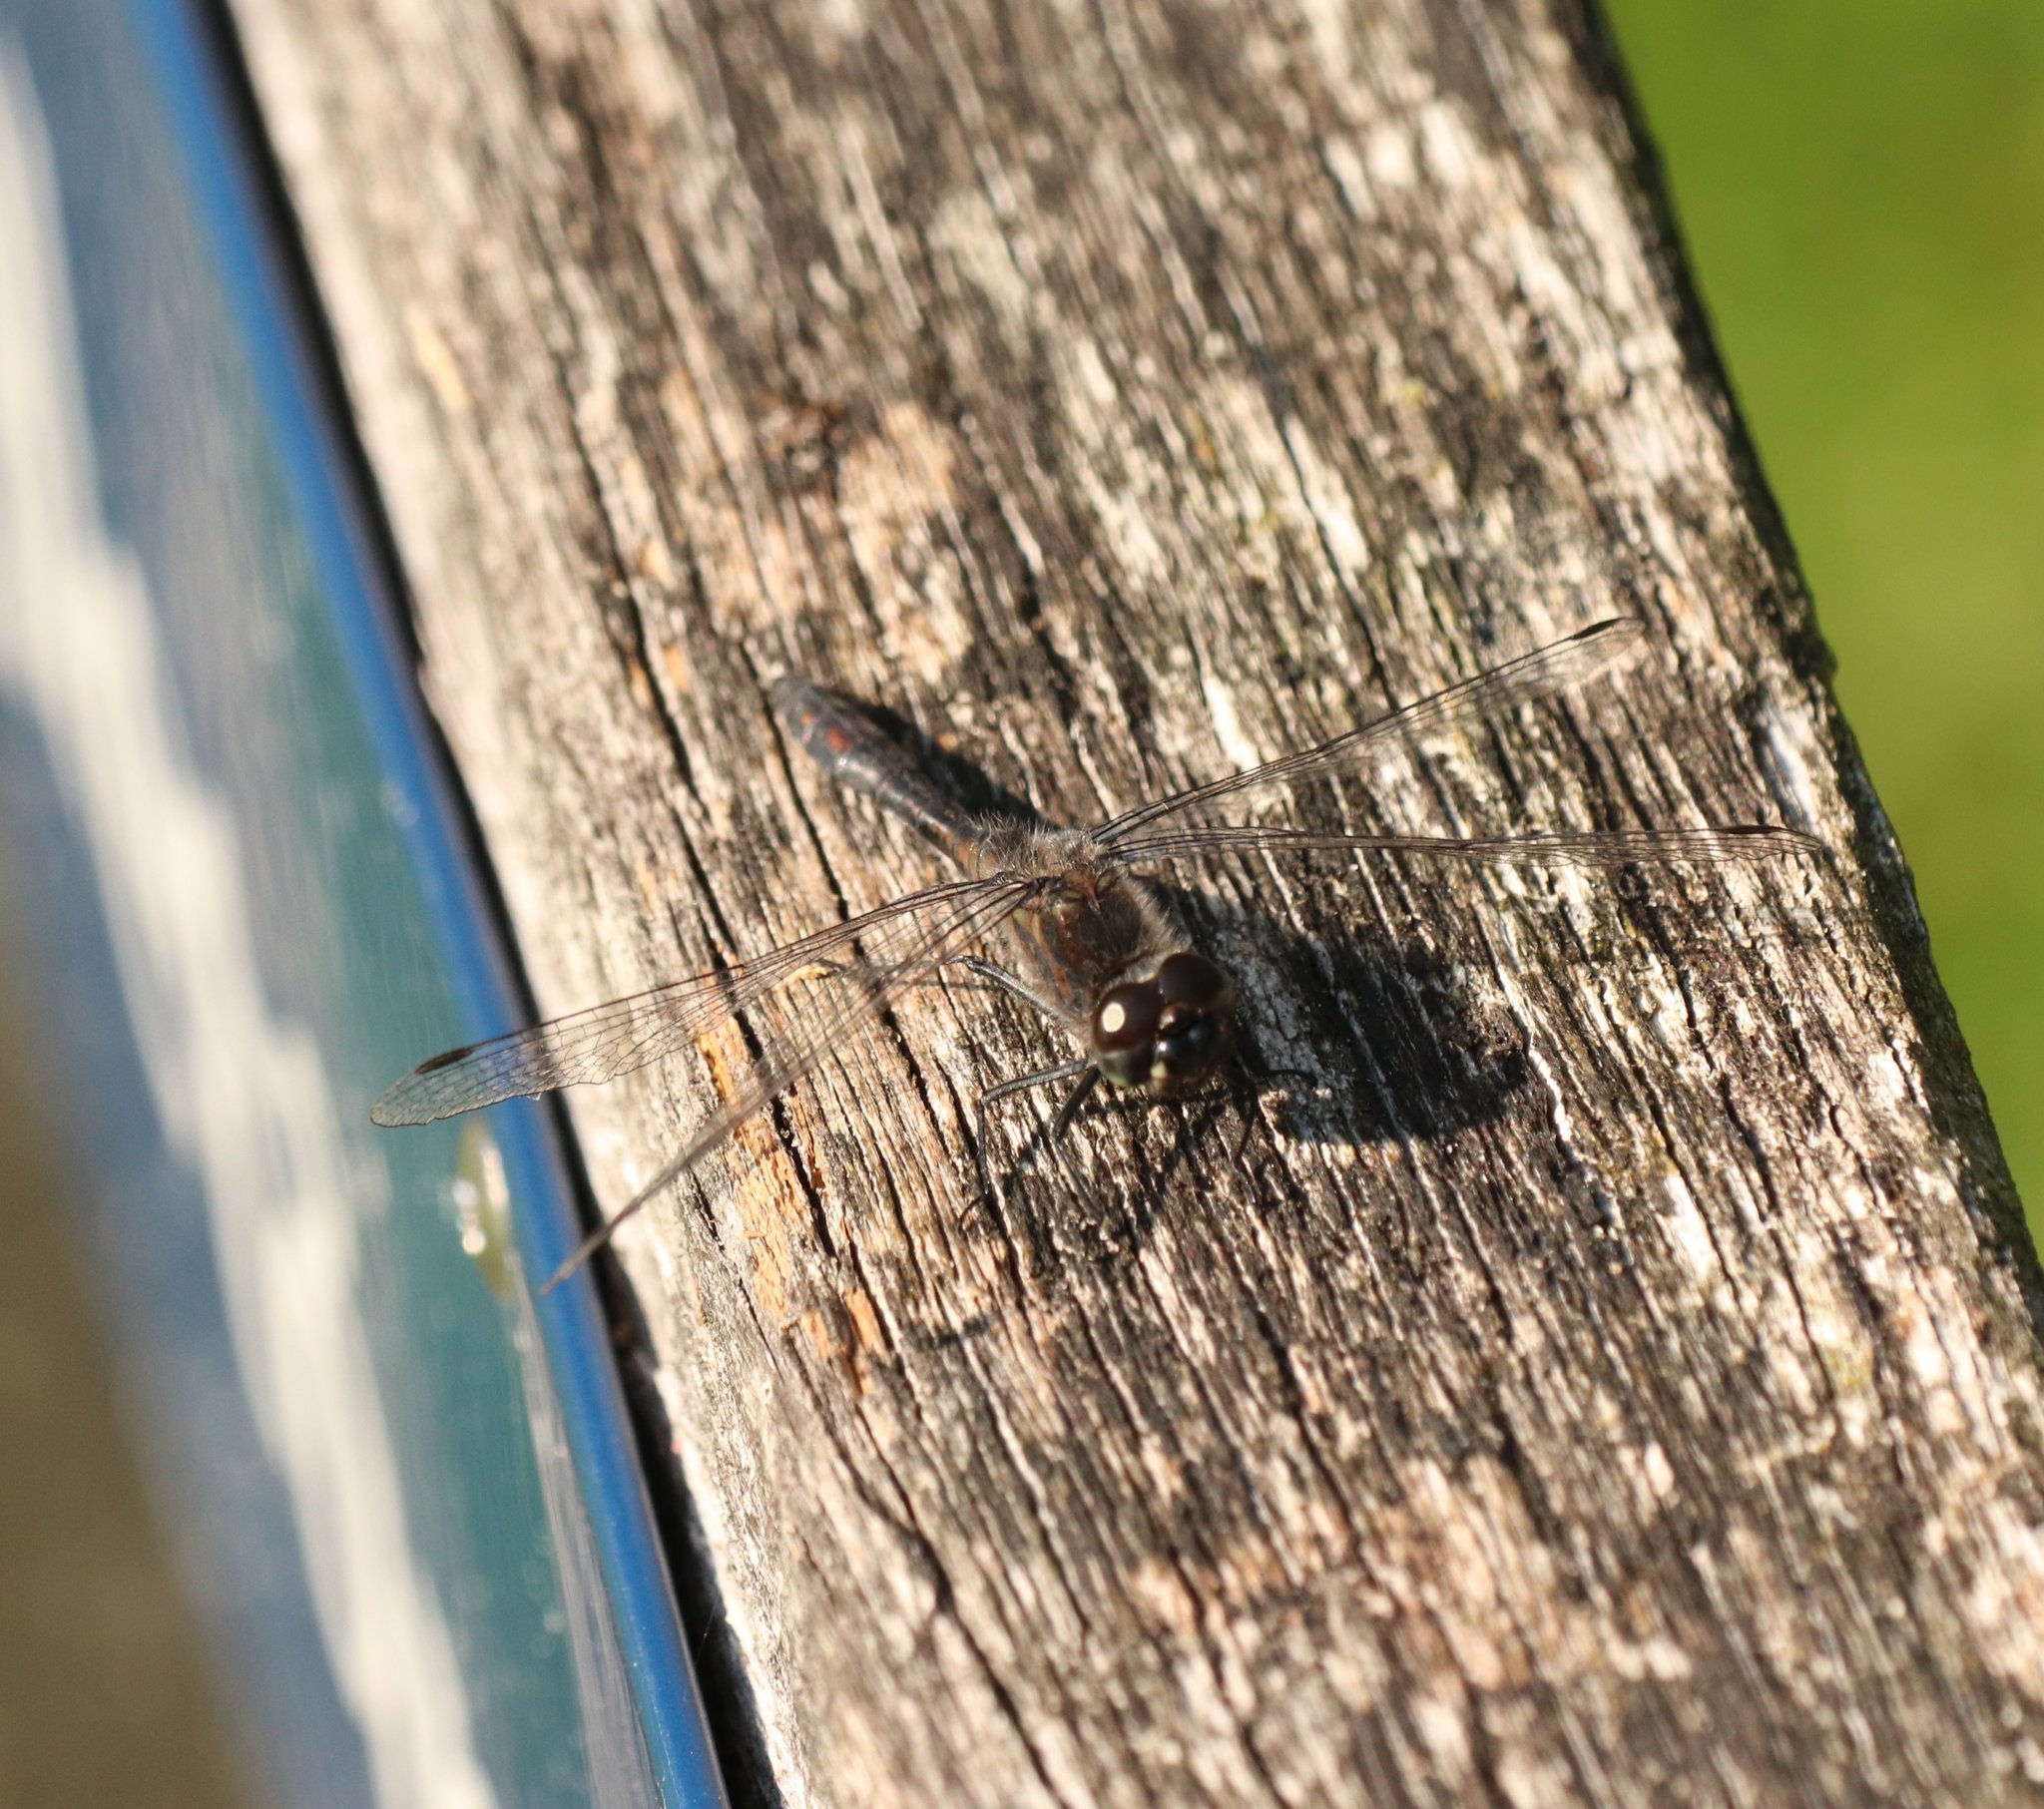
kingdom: Animalia
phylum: Arthropoda
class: Insecta
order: Odonata
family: Libellulidae
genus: Sympetrum
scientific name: Sympetrum danae
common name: Black darter
